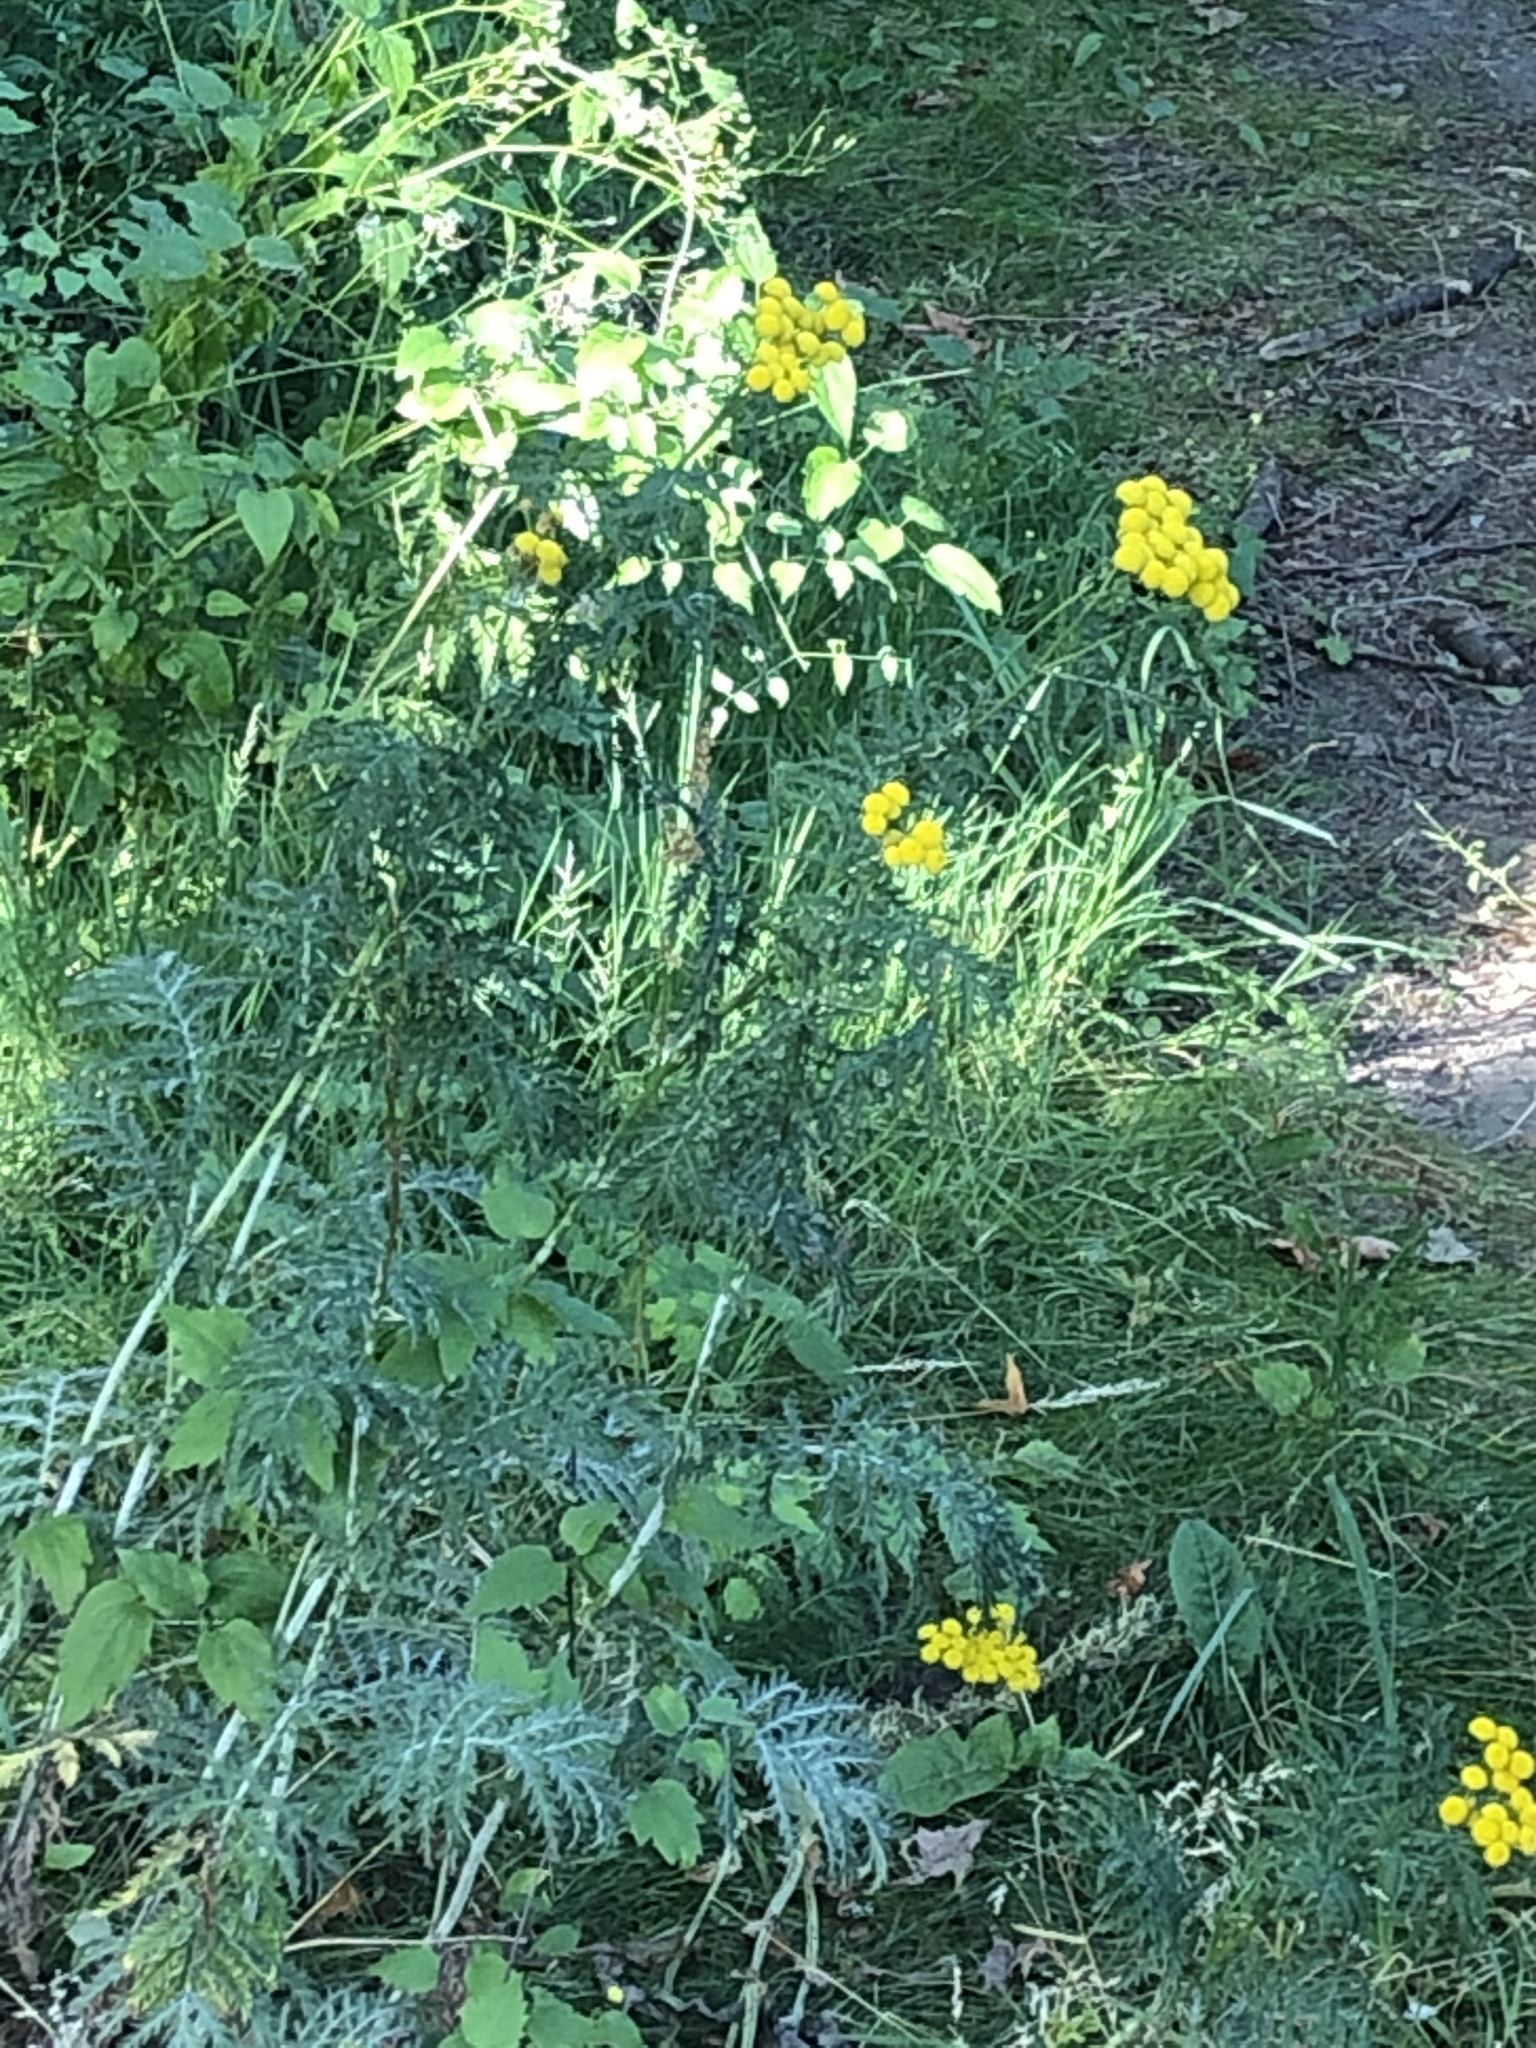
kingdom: Plantae
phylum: Tracheophyta
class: Magnoliopsida
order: Asterales
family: Asteraceae
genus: Tanacetum
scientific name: Tanacetum vulgare
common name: Common tansy
